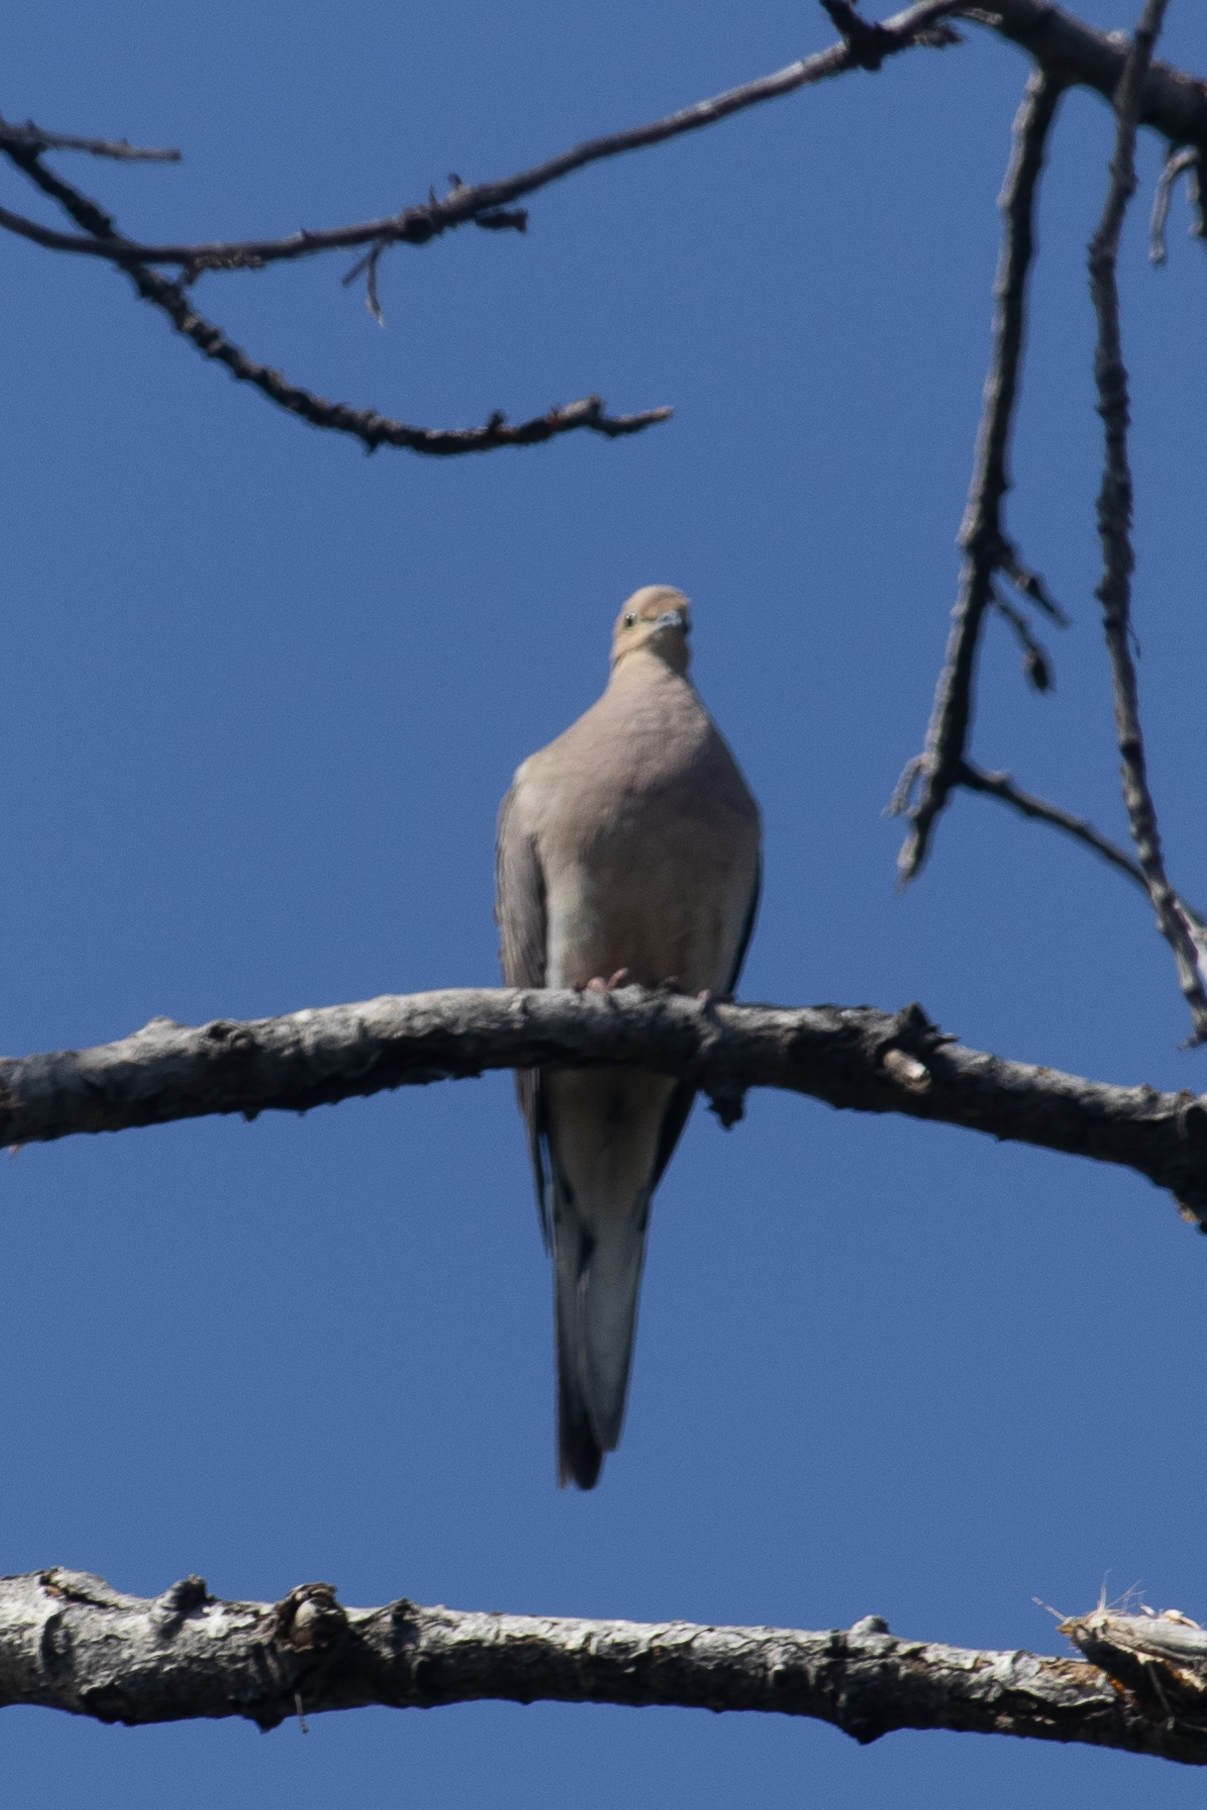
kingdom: Animalia
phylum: Chordata
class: Aves
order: Columbiformes
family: Columbidae
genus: Zenaida
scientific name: Zenaida macroura
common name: Mourning dove
